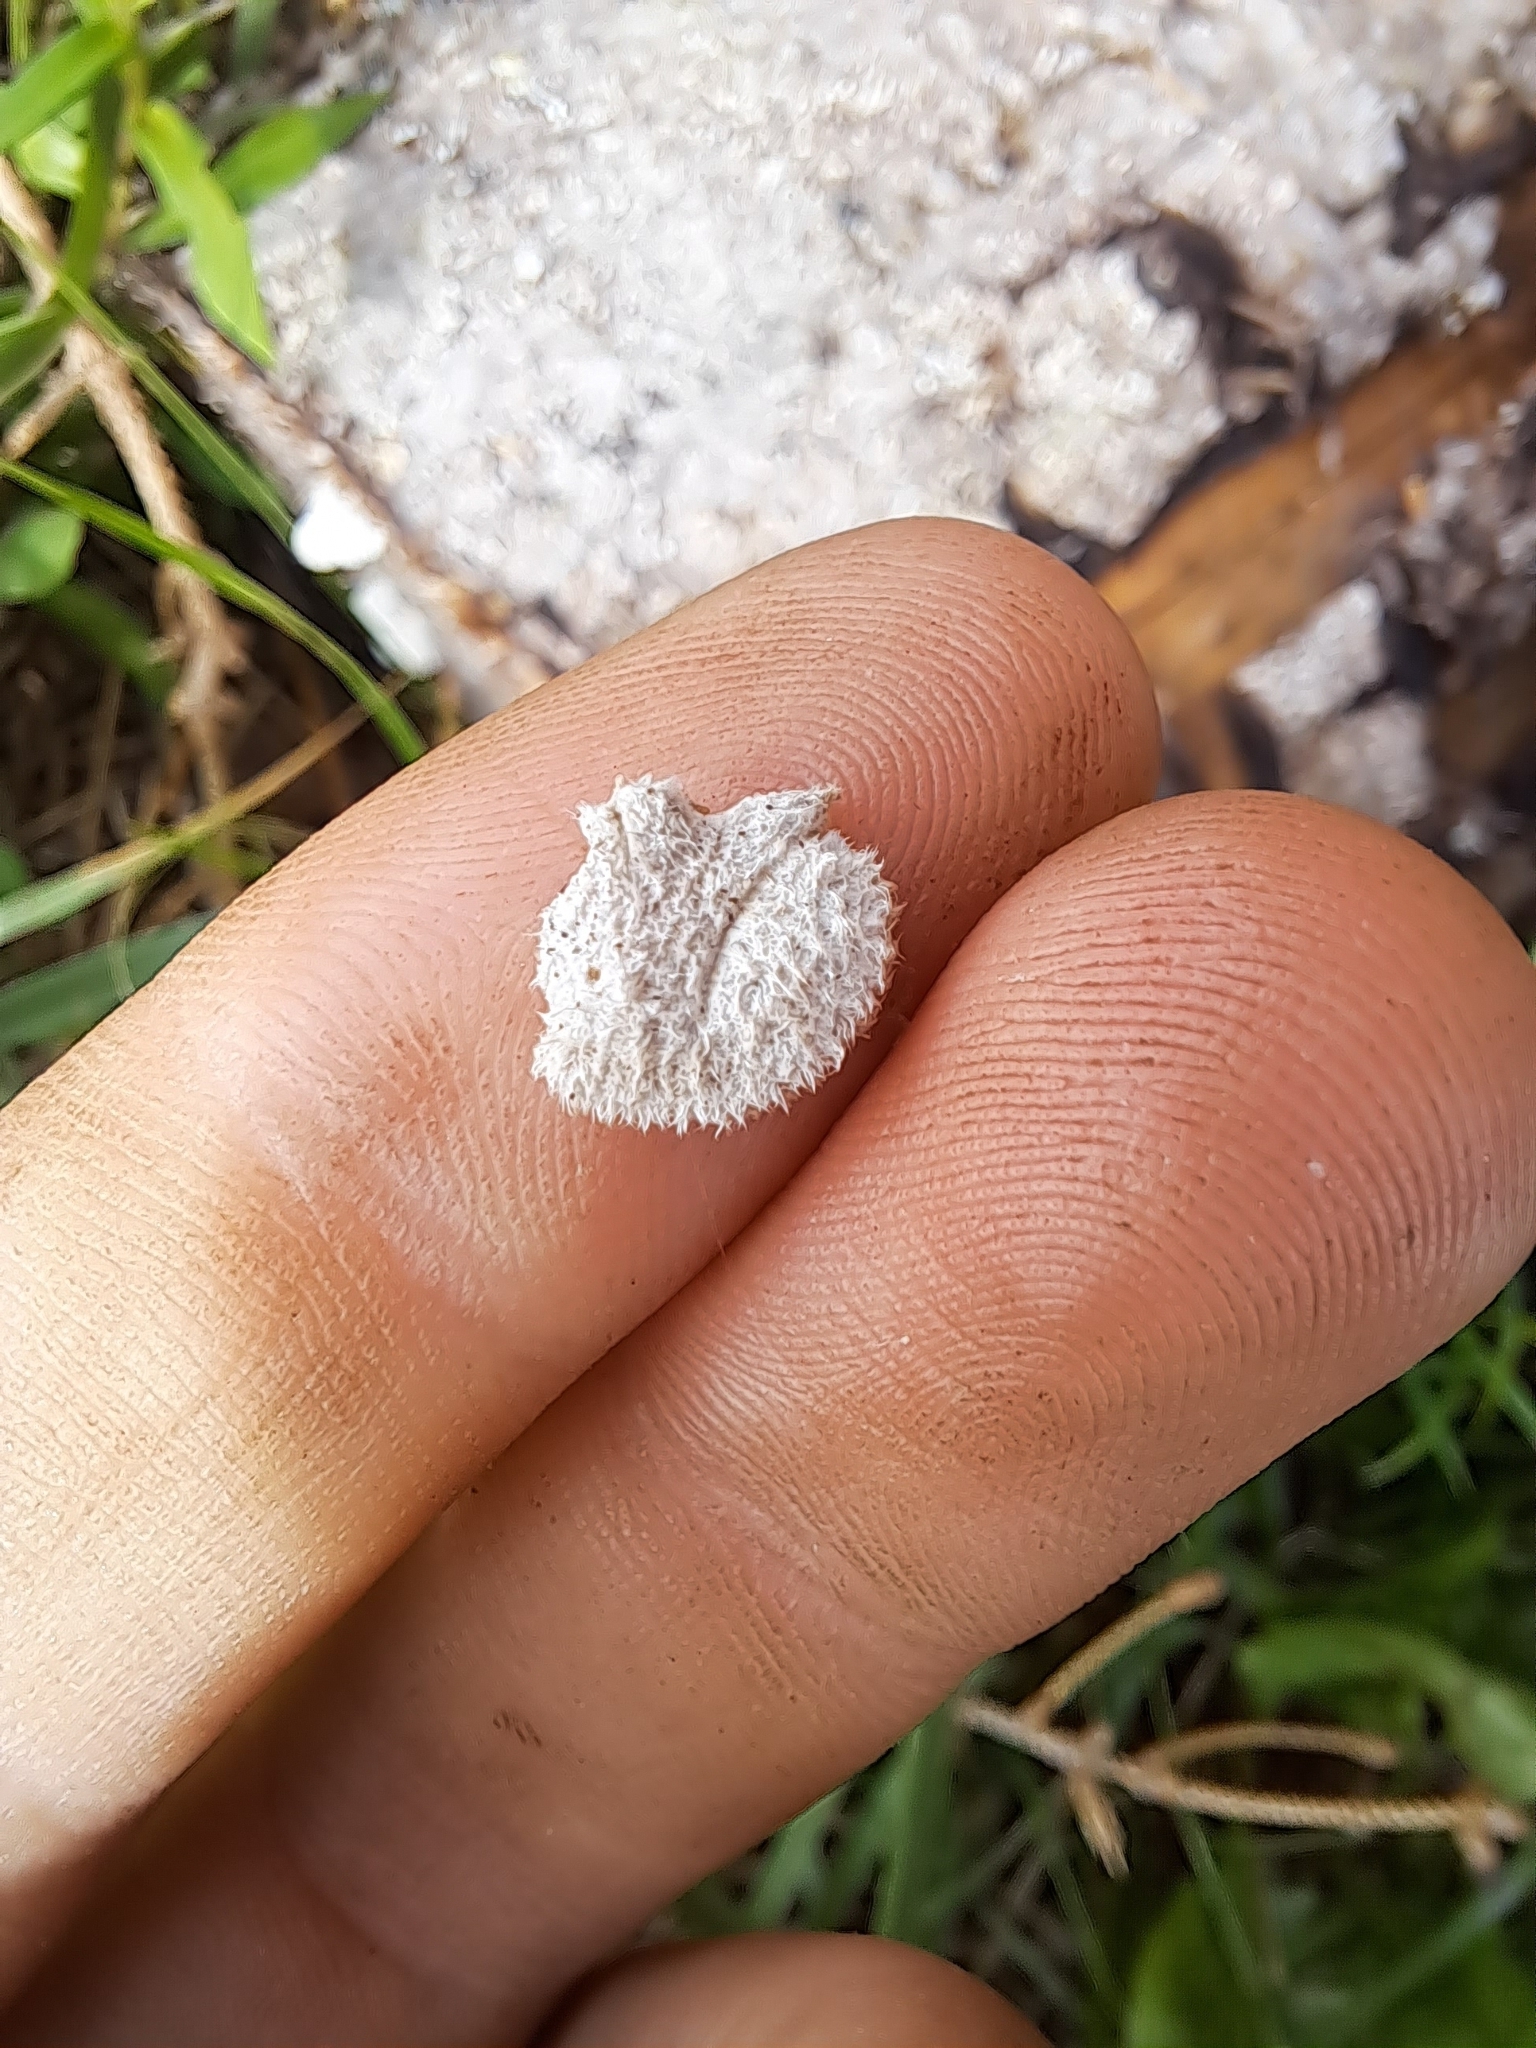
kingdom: Fungi
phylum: Basidiomycota
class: Agaricomycetes
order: Agaricales
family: Schizophyllaceae
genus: Schizophyllum
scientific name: Schizophyllum commune
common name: Common porecrust
